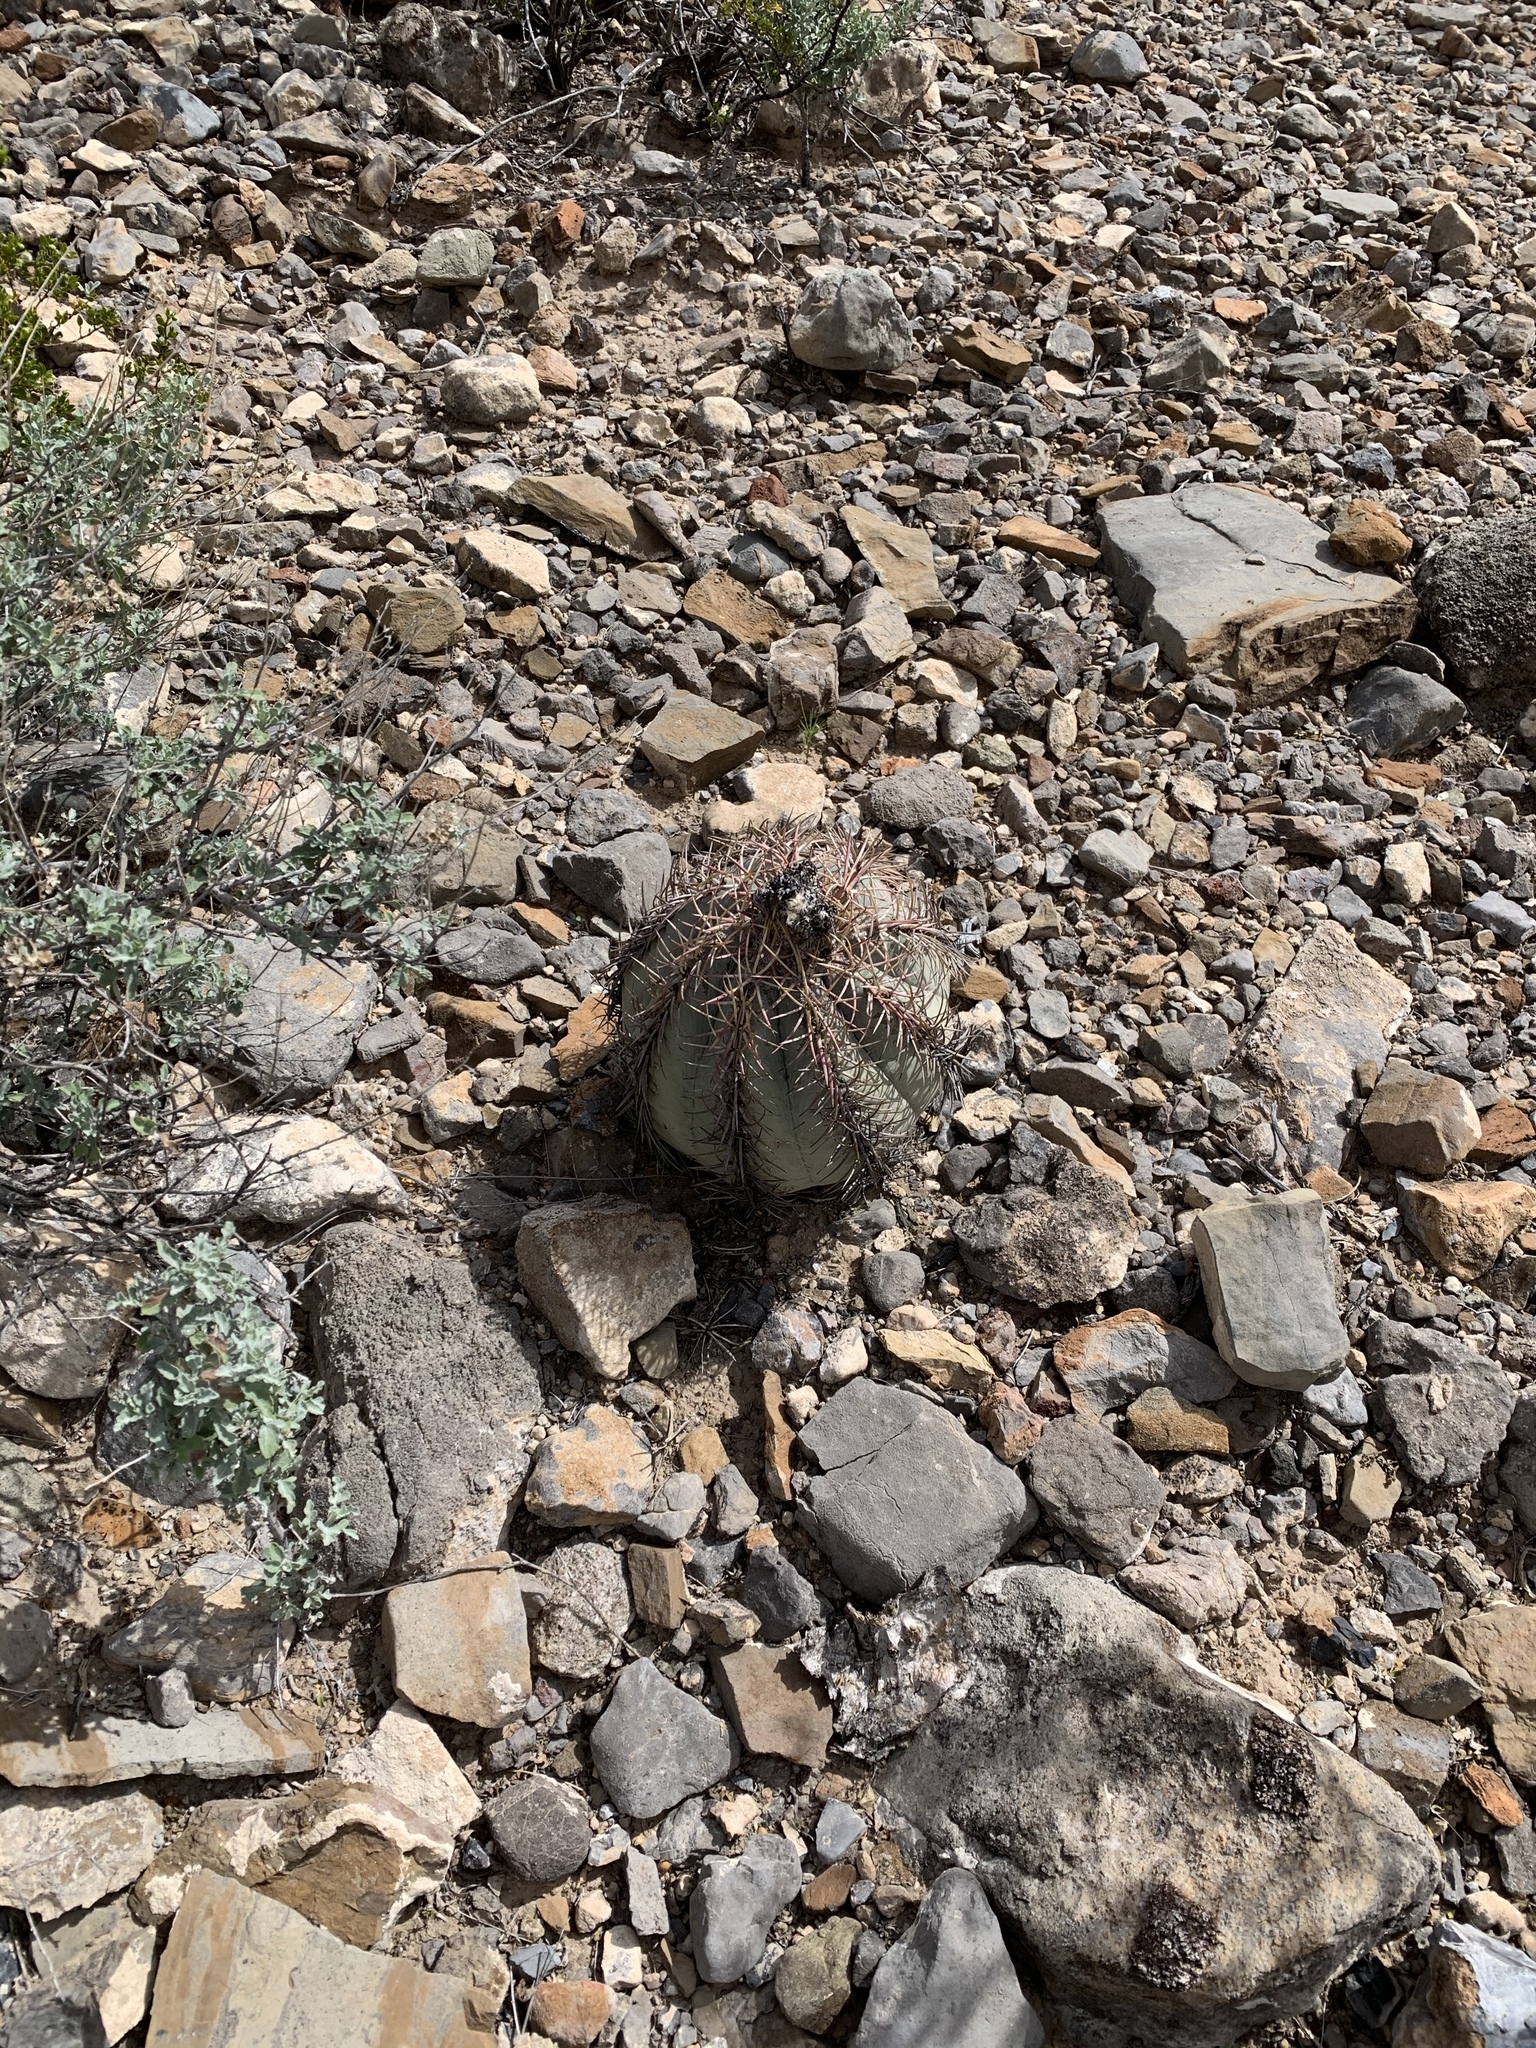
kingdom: Plantae
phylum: Tracheophyta
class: Magnoliopsida
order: Caryophyllales
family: Cactaceae
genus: Echinocactus
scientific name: Echinocactus horizonthalonius
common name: Devilshead
